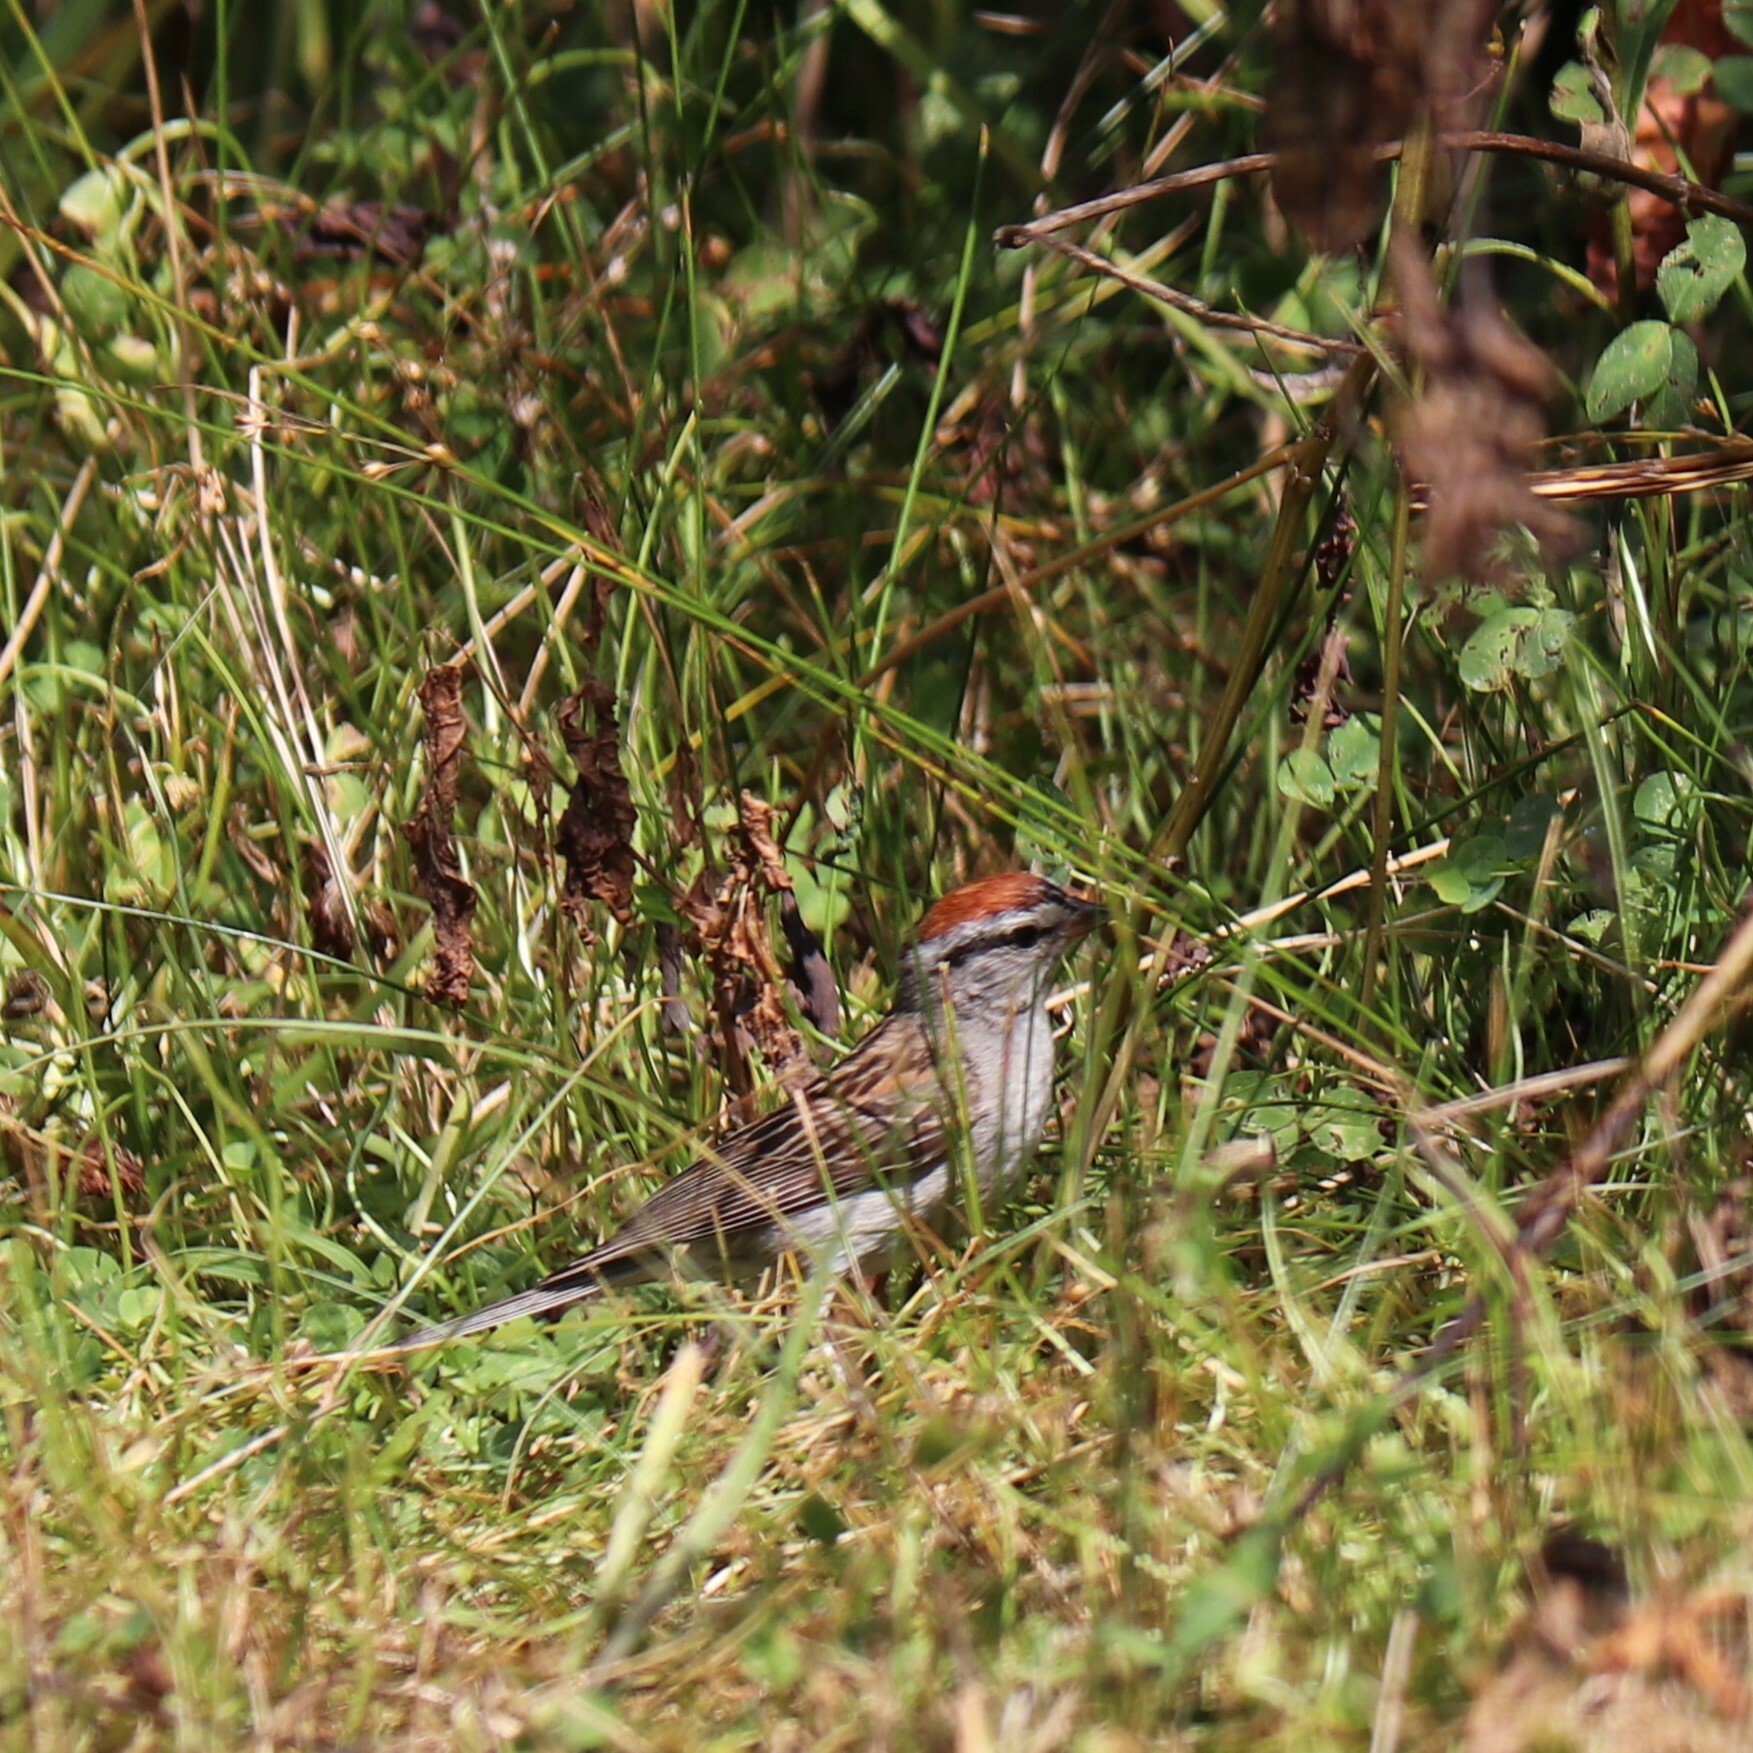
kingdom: Animalia
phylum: Chordata
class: Aves
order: Passeriformes
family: Passerellidae
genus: Spizella
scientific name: Spizella passerina
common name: Chipping sparrow
